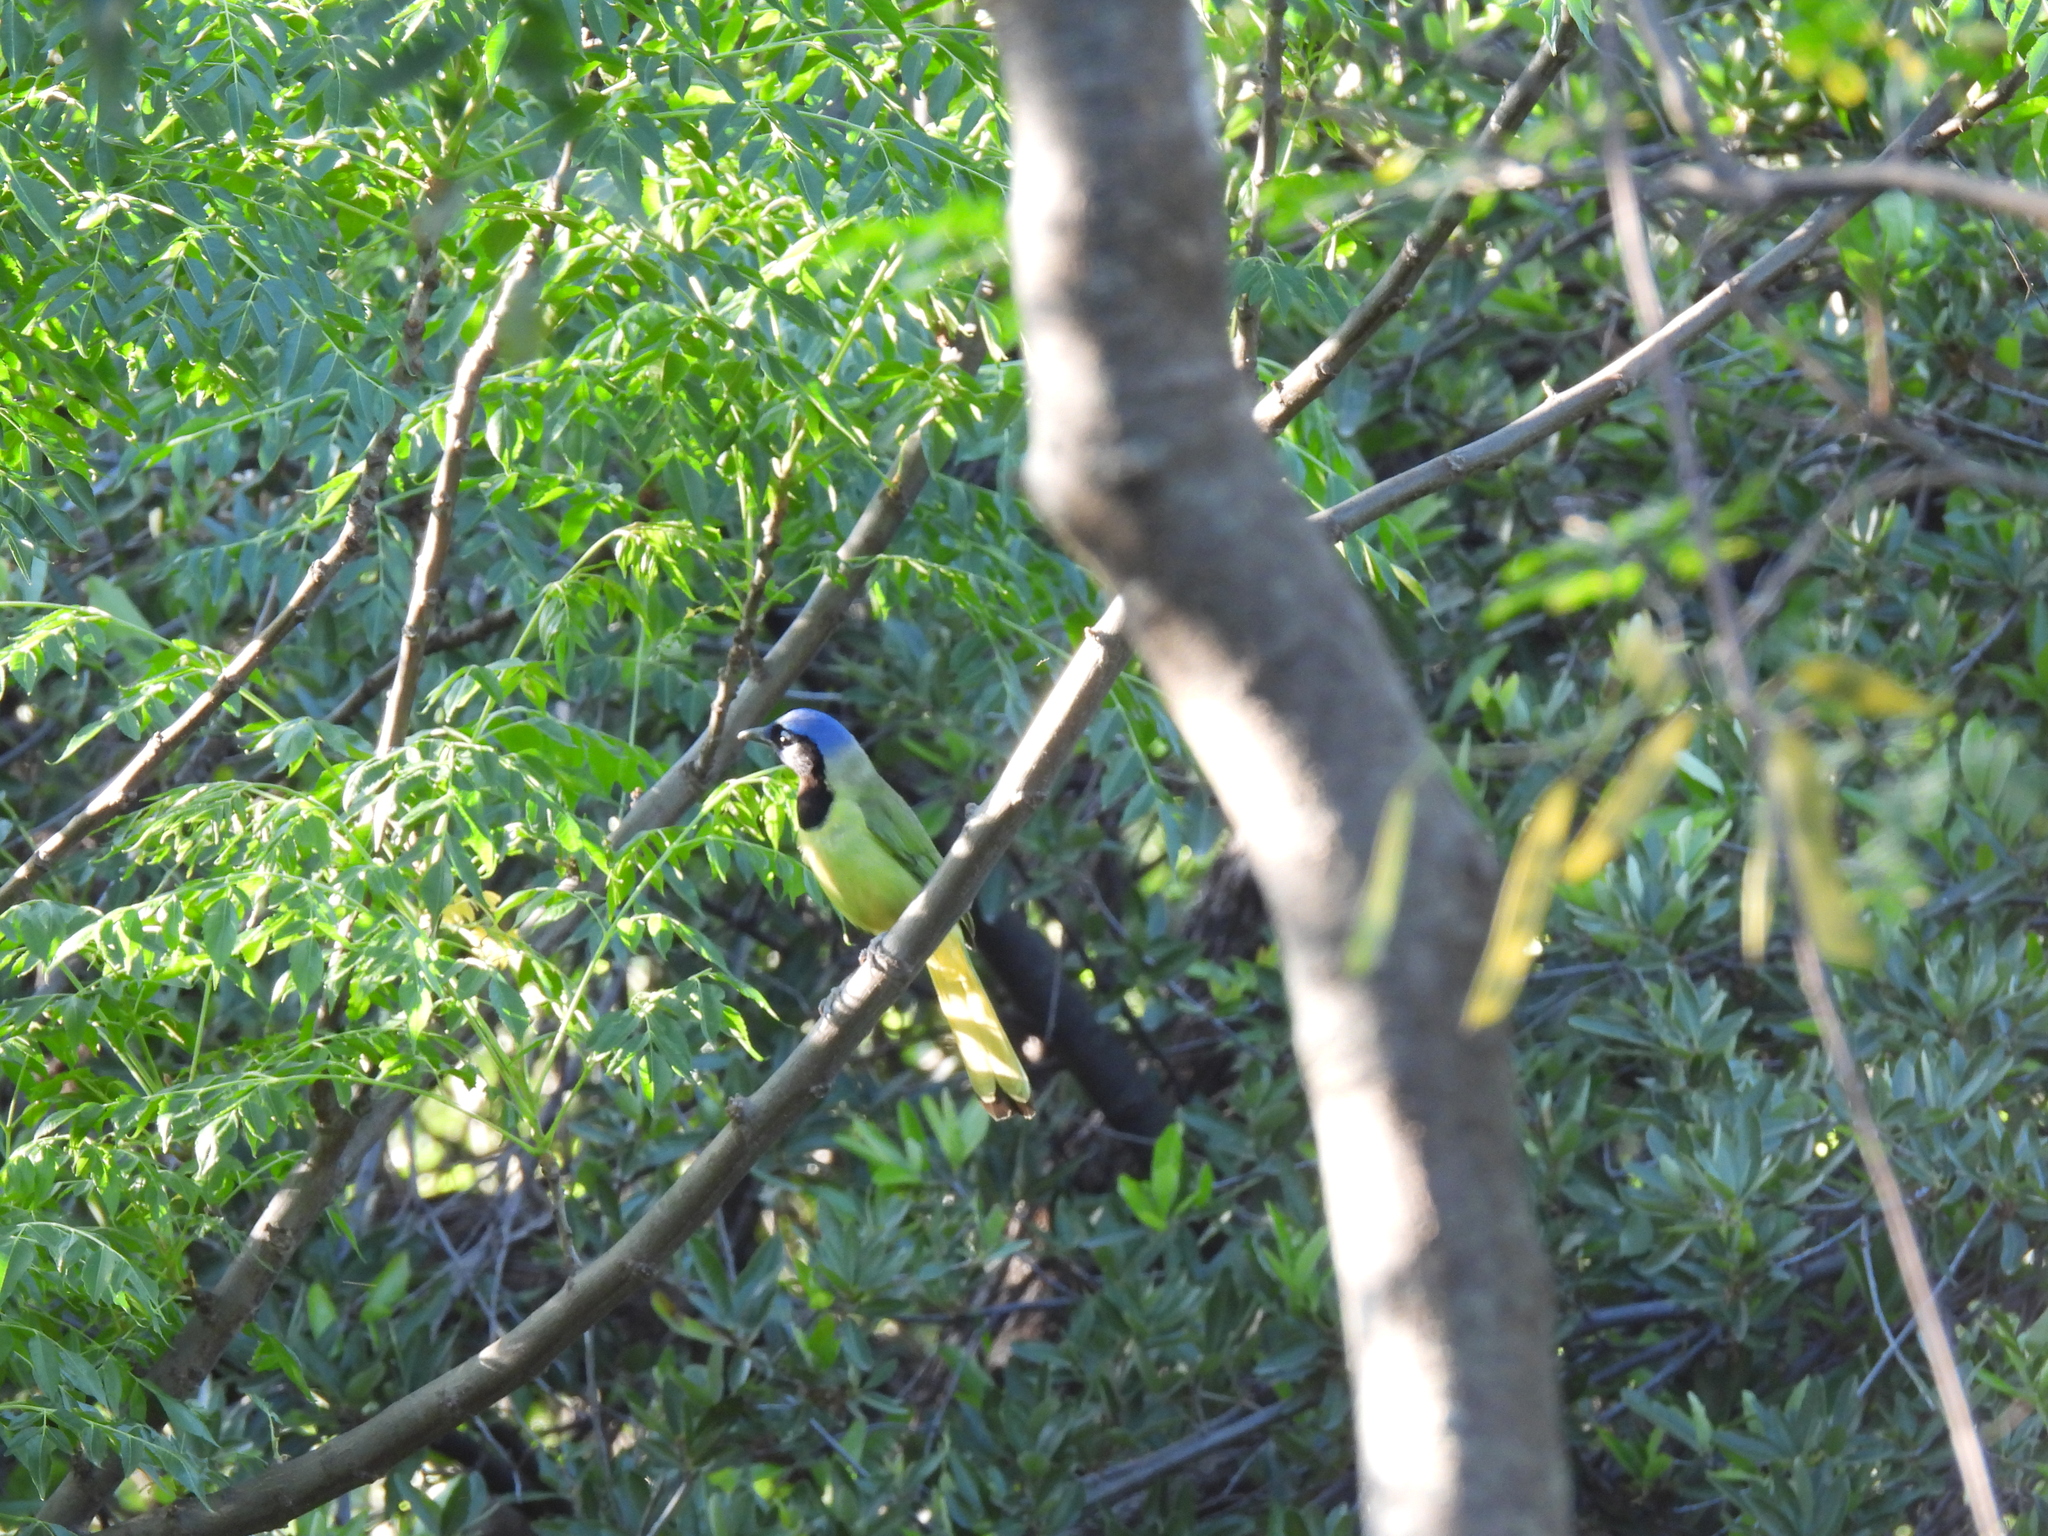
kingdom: Animalia
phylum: Chordata
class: Aves
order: Passeriformes
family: Corvidae
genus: Cyanocorax
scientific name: Cyanocorax yncas
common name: Green jay
